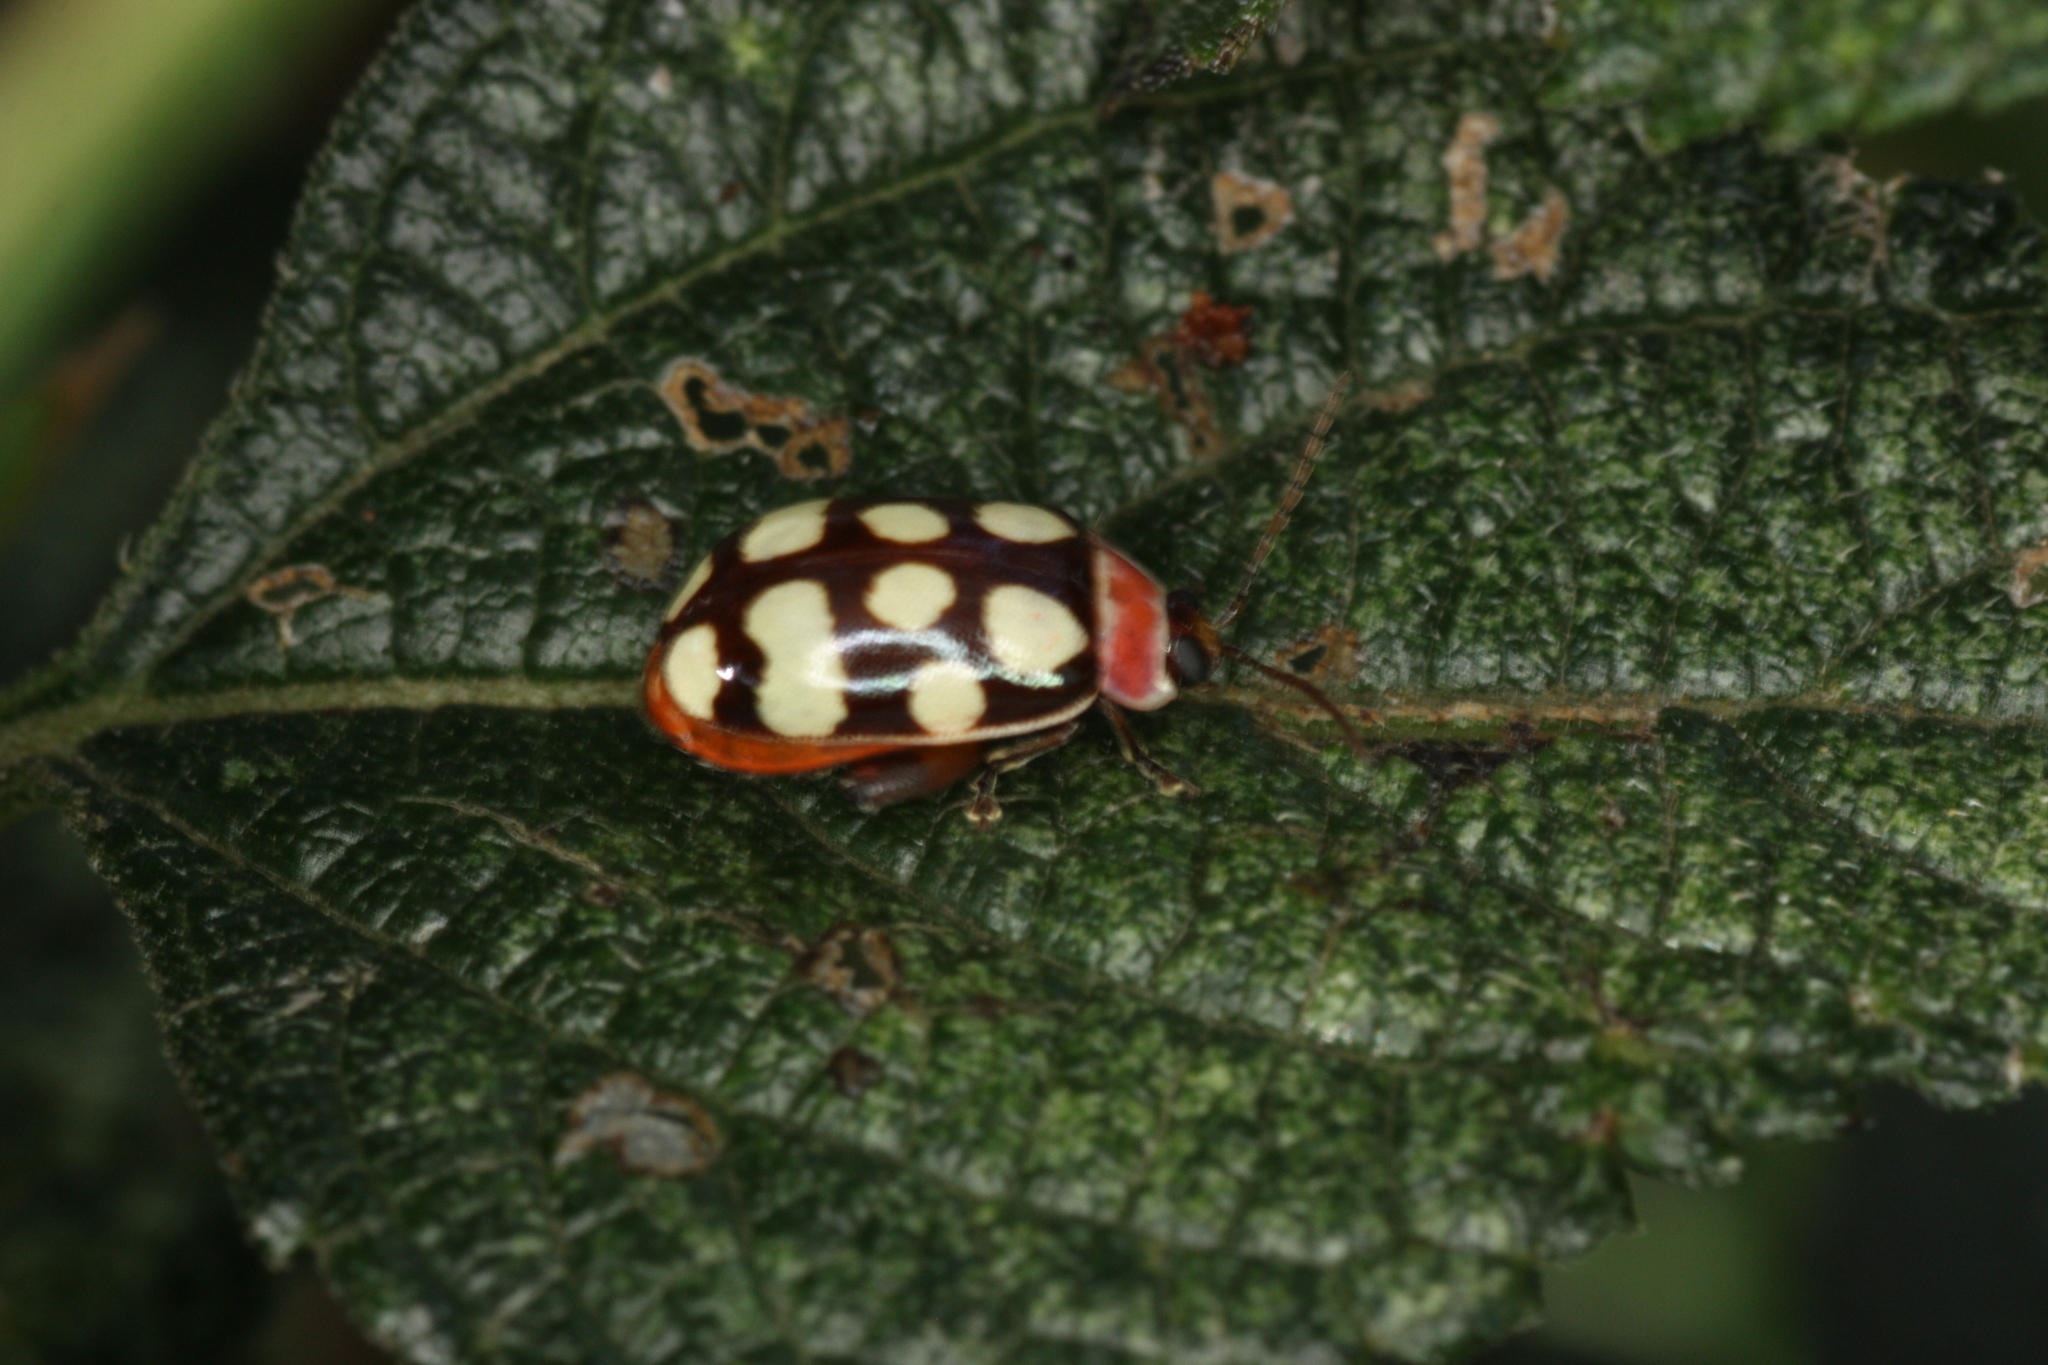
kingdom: Animalia
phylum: Arthropoda
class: Insecta
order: Coleoptera
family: Chrysomelidae
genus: Alagoasa
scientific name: Alagoasa
